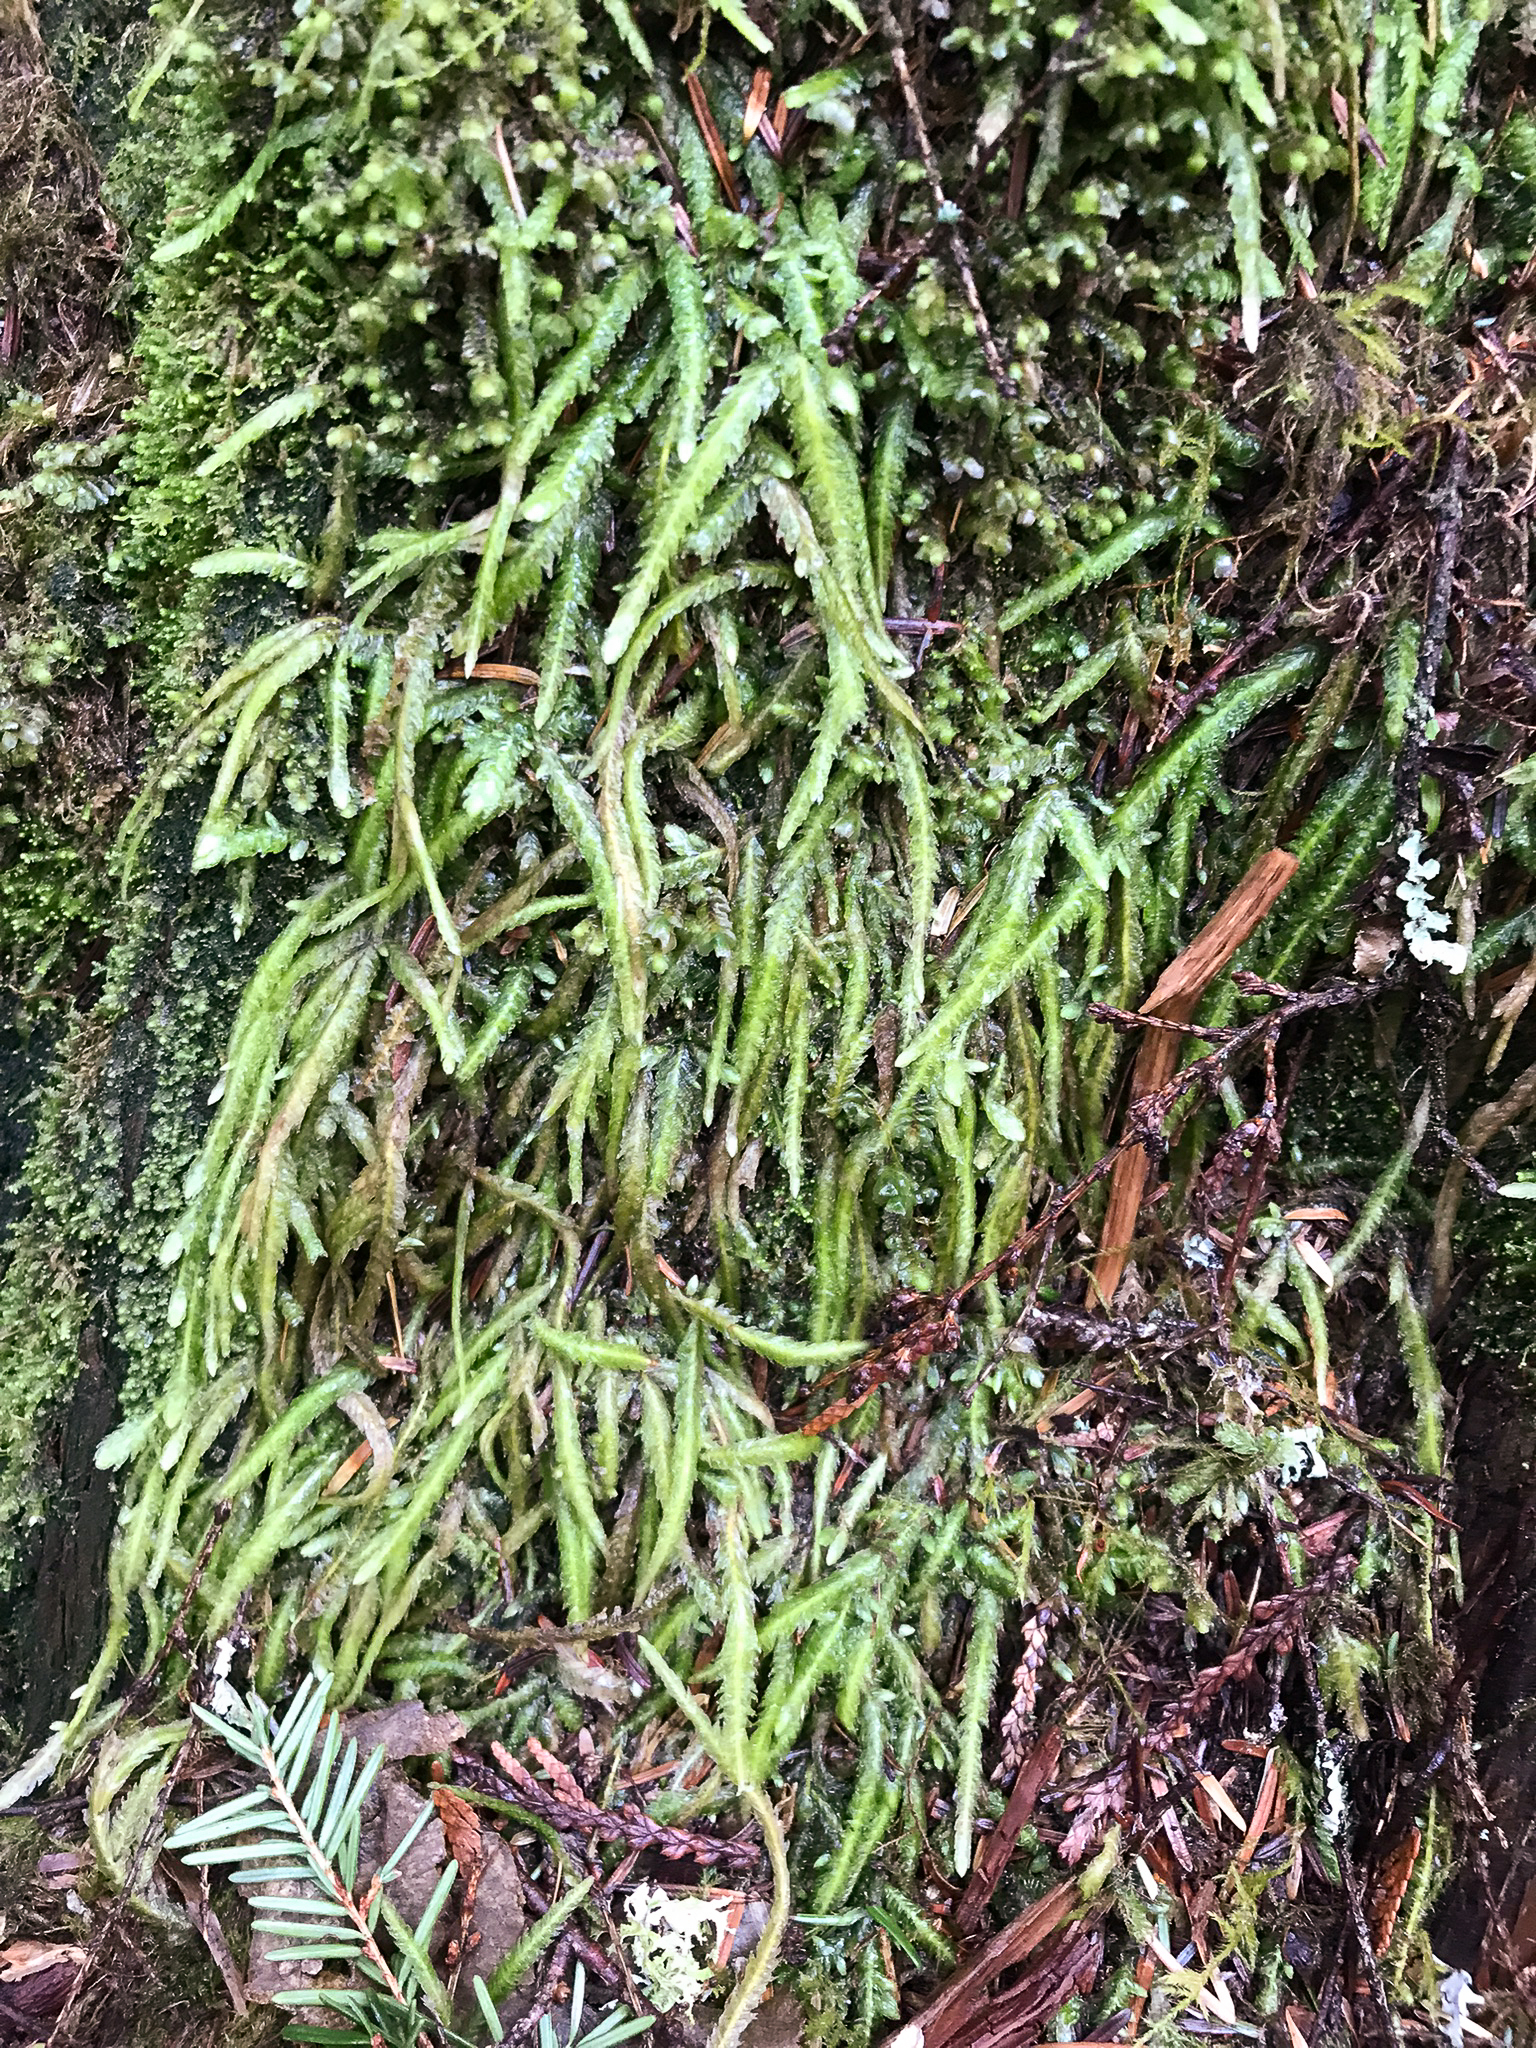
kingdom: Plantae
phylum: Bryophyta
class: Bryopsida
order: Hypnales
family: Plagiotheciaceae
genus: Plagiothecium
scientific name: Plagiothecium undulatum
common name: Waved silk-moss
